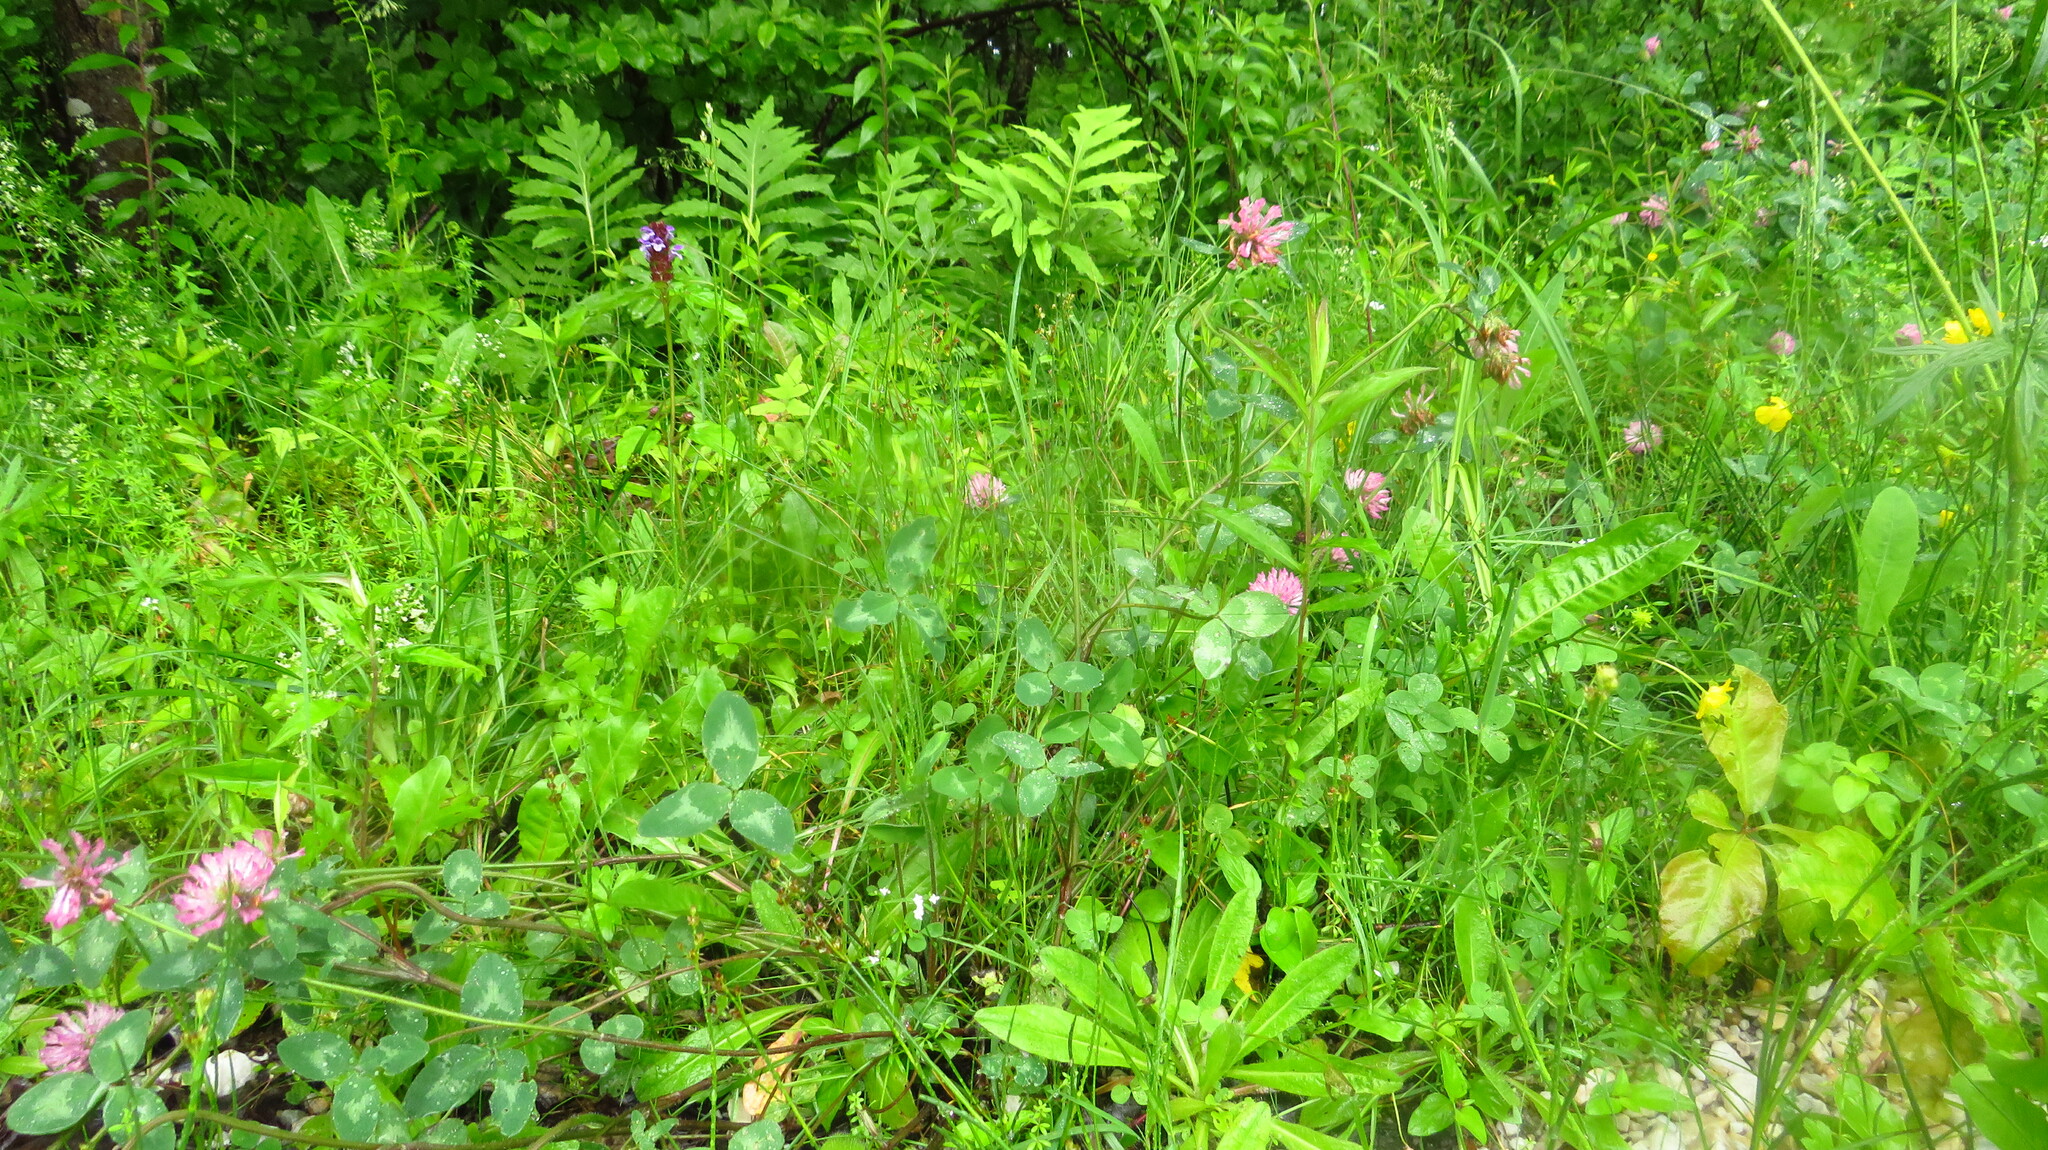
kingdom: Plantae
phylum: Tracheophyta
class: Magnoliopsida
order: Fabales
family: Fabaceae
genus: Trifolium
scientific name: Trifolium pratense
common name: Red clover
